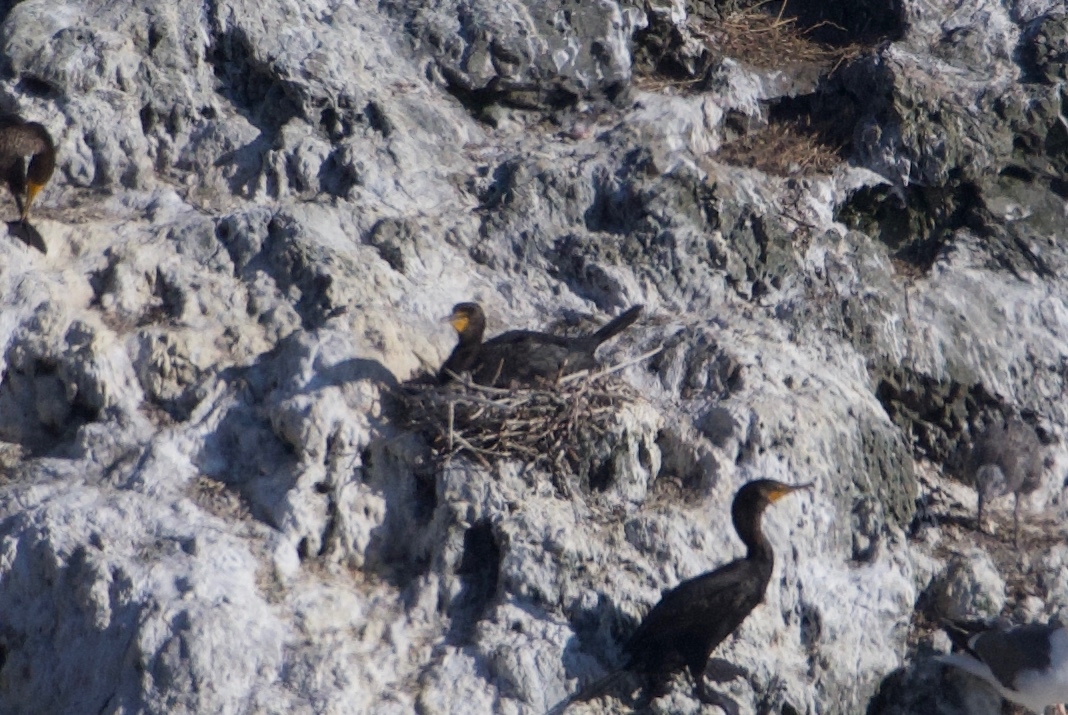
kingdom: Animalia
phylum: Chordata
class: Aves
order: Suliformes
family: Phalacrocoracidae
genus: Phalacrocorax
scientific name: Phalacrocorax auritus
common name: Double-crested cormorant
